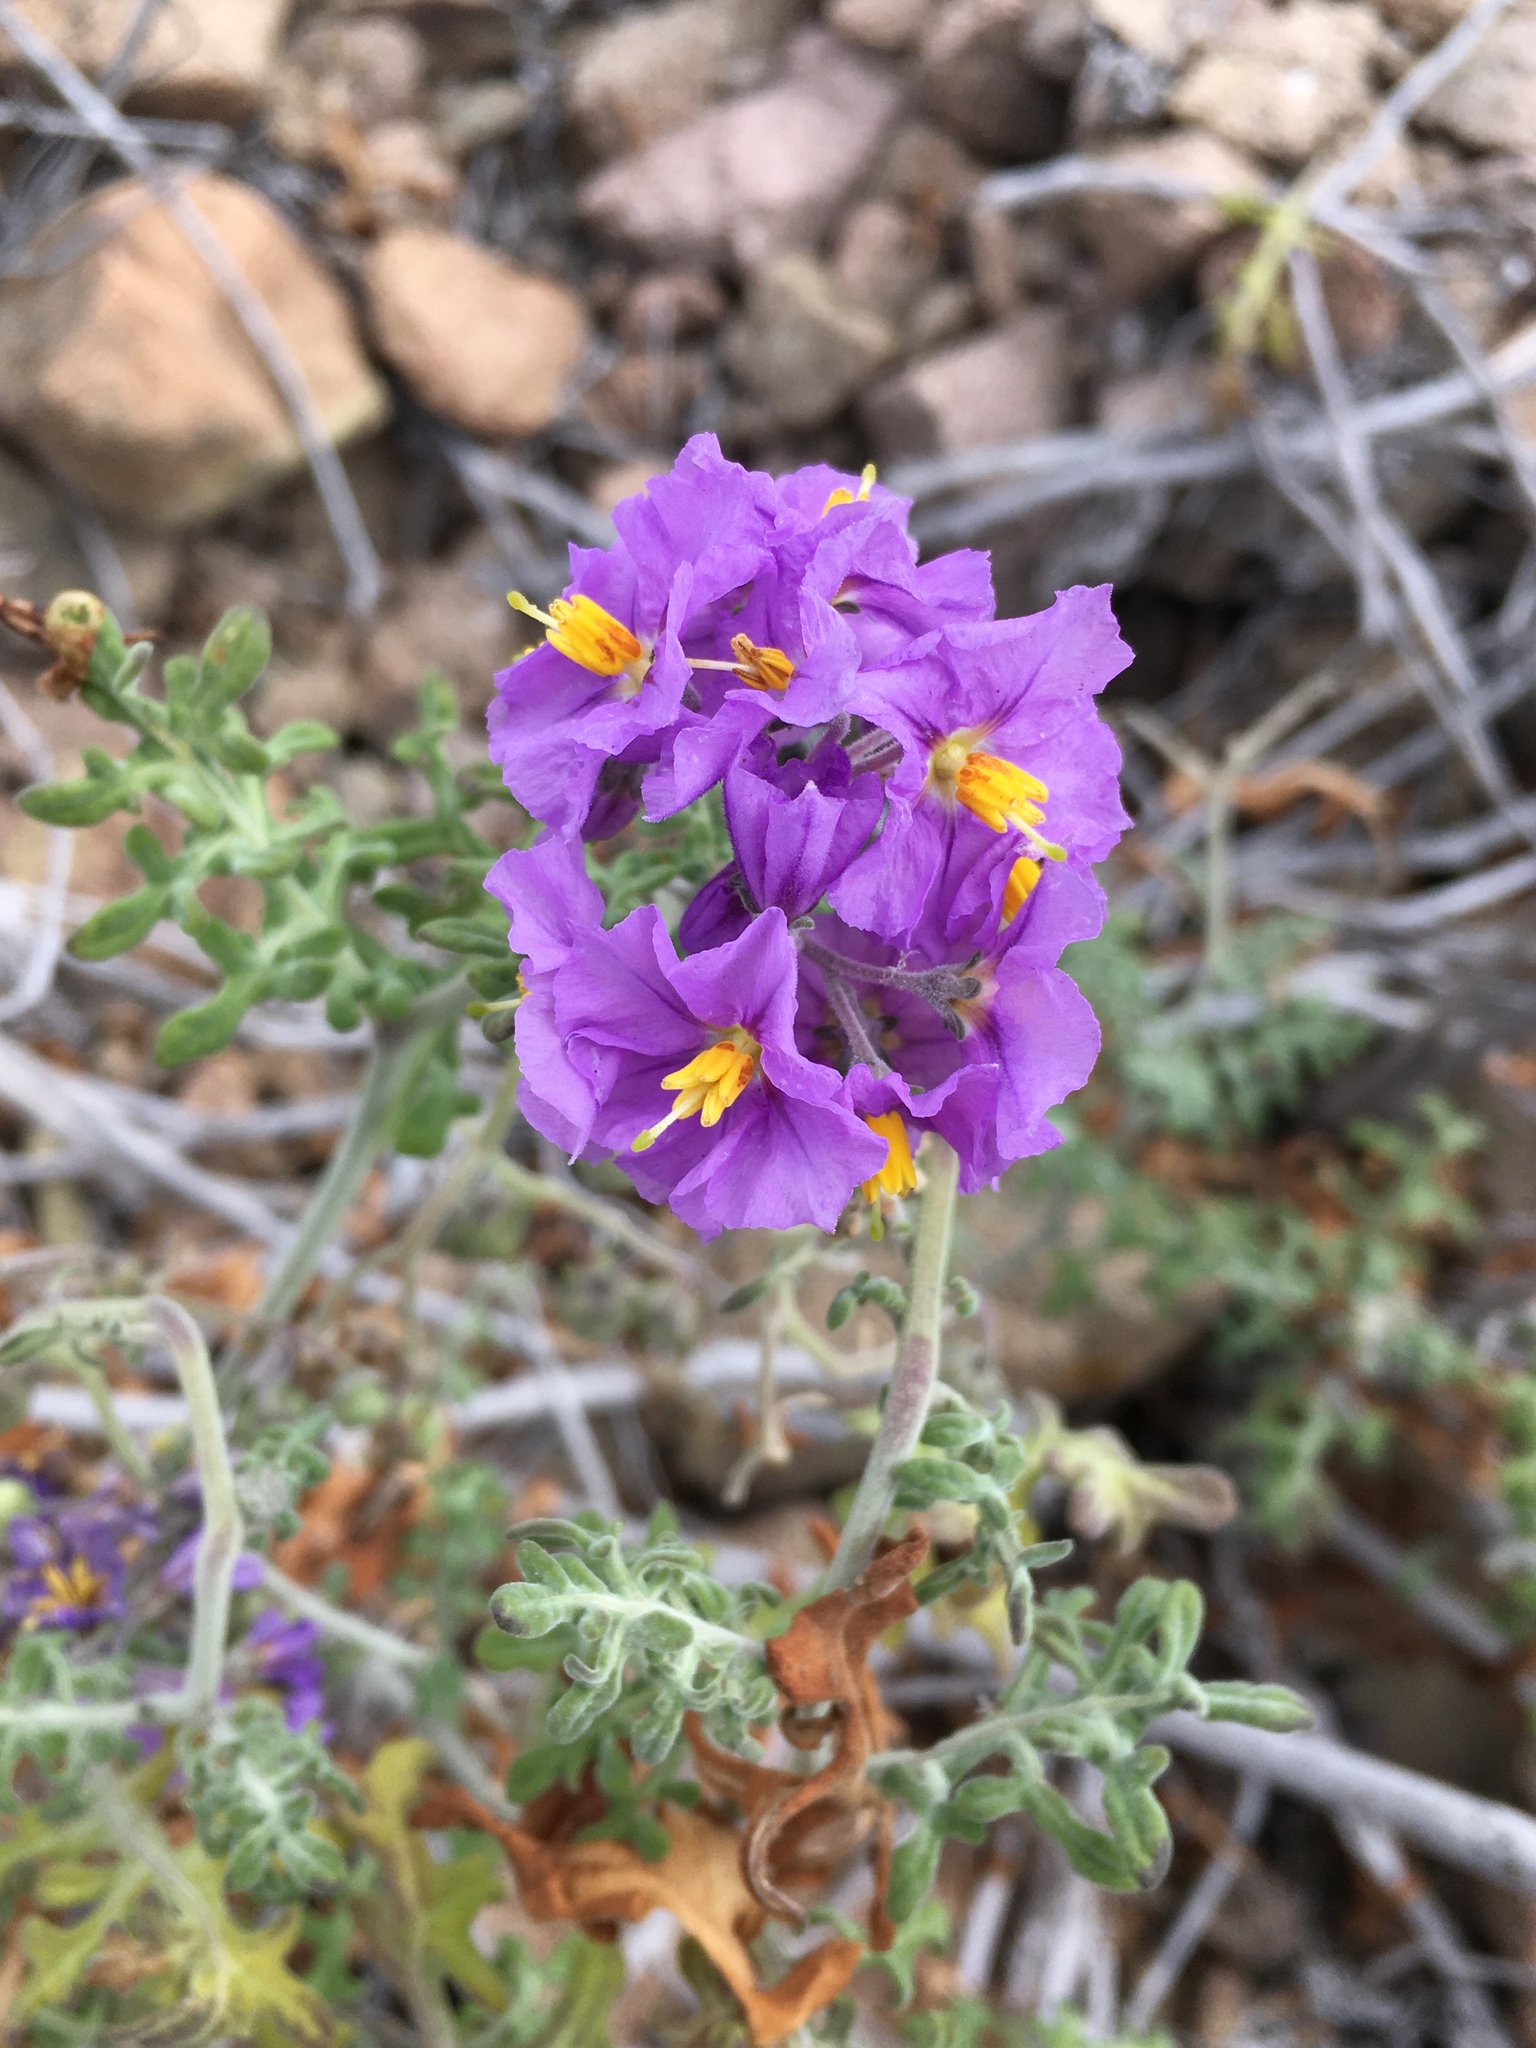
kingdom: Plantae
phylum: Tracheophyta
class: Magnoliopsida
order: Solanales
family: Solanaceae
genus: Solanum
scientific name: Solanum remyanum
